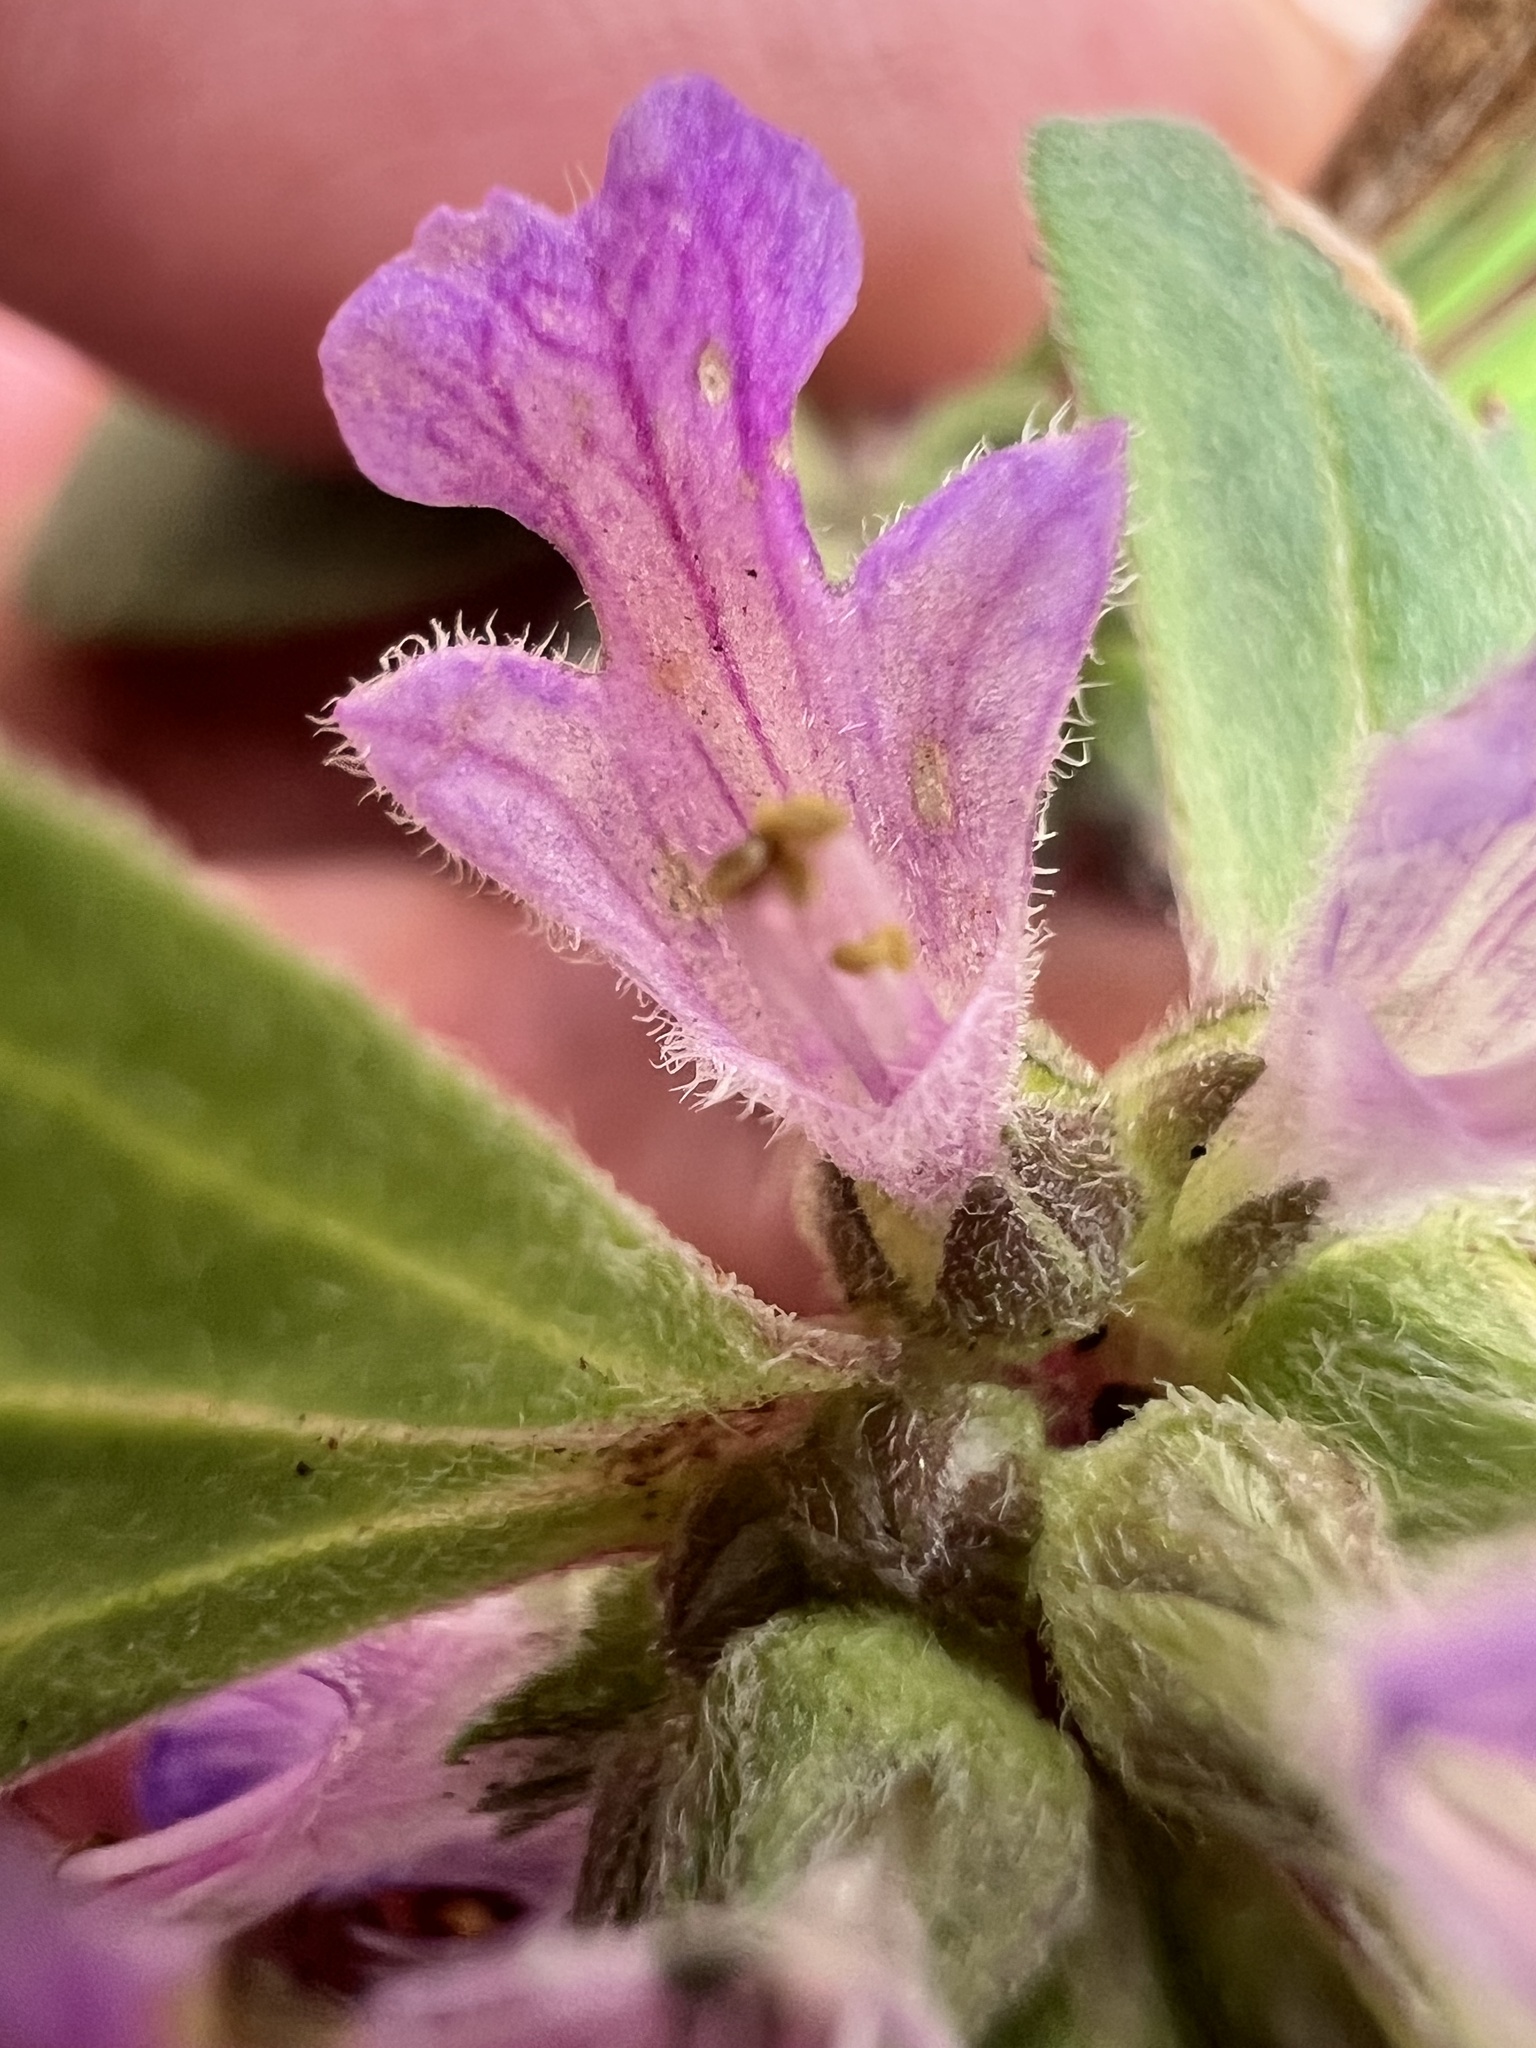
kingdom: Plantae
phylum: Tracheophyta
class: Magnoliopsida
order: Lamiales
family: Lamiaceae
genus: Ajuga
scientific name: Ajuga australis
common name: Australian bugle
